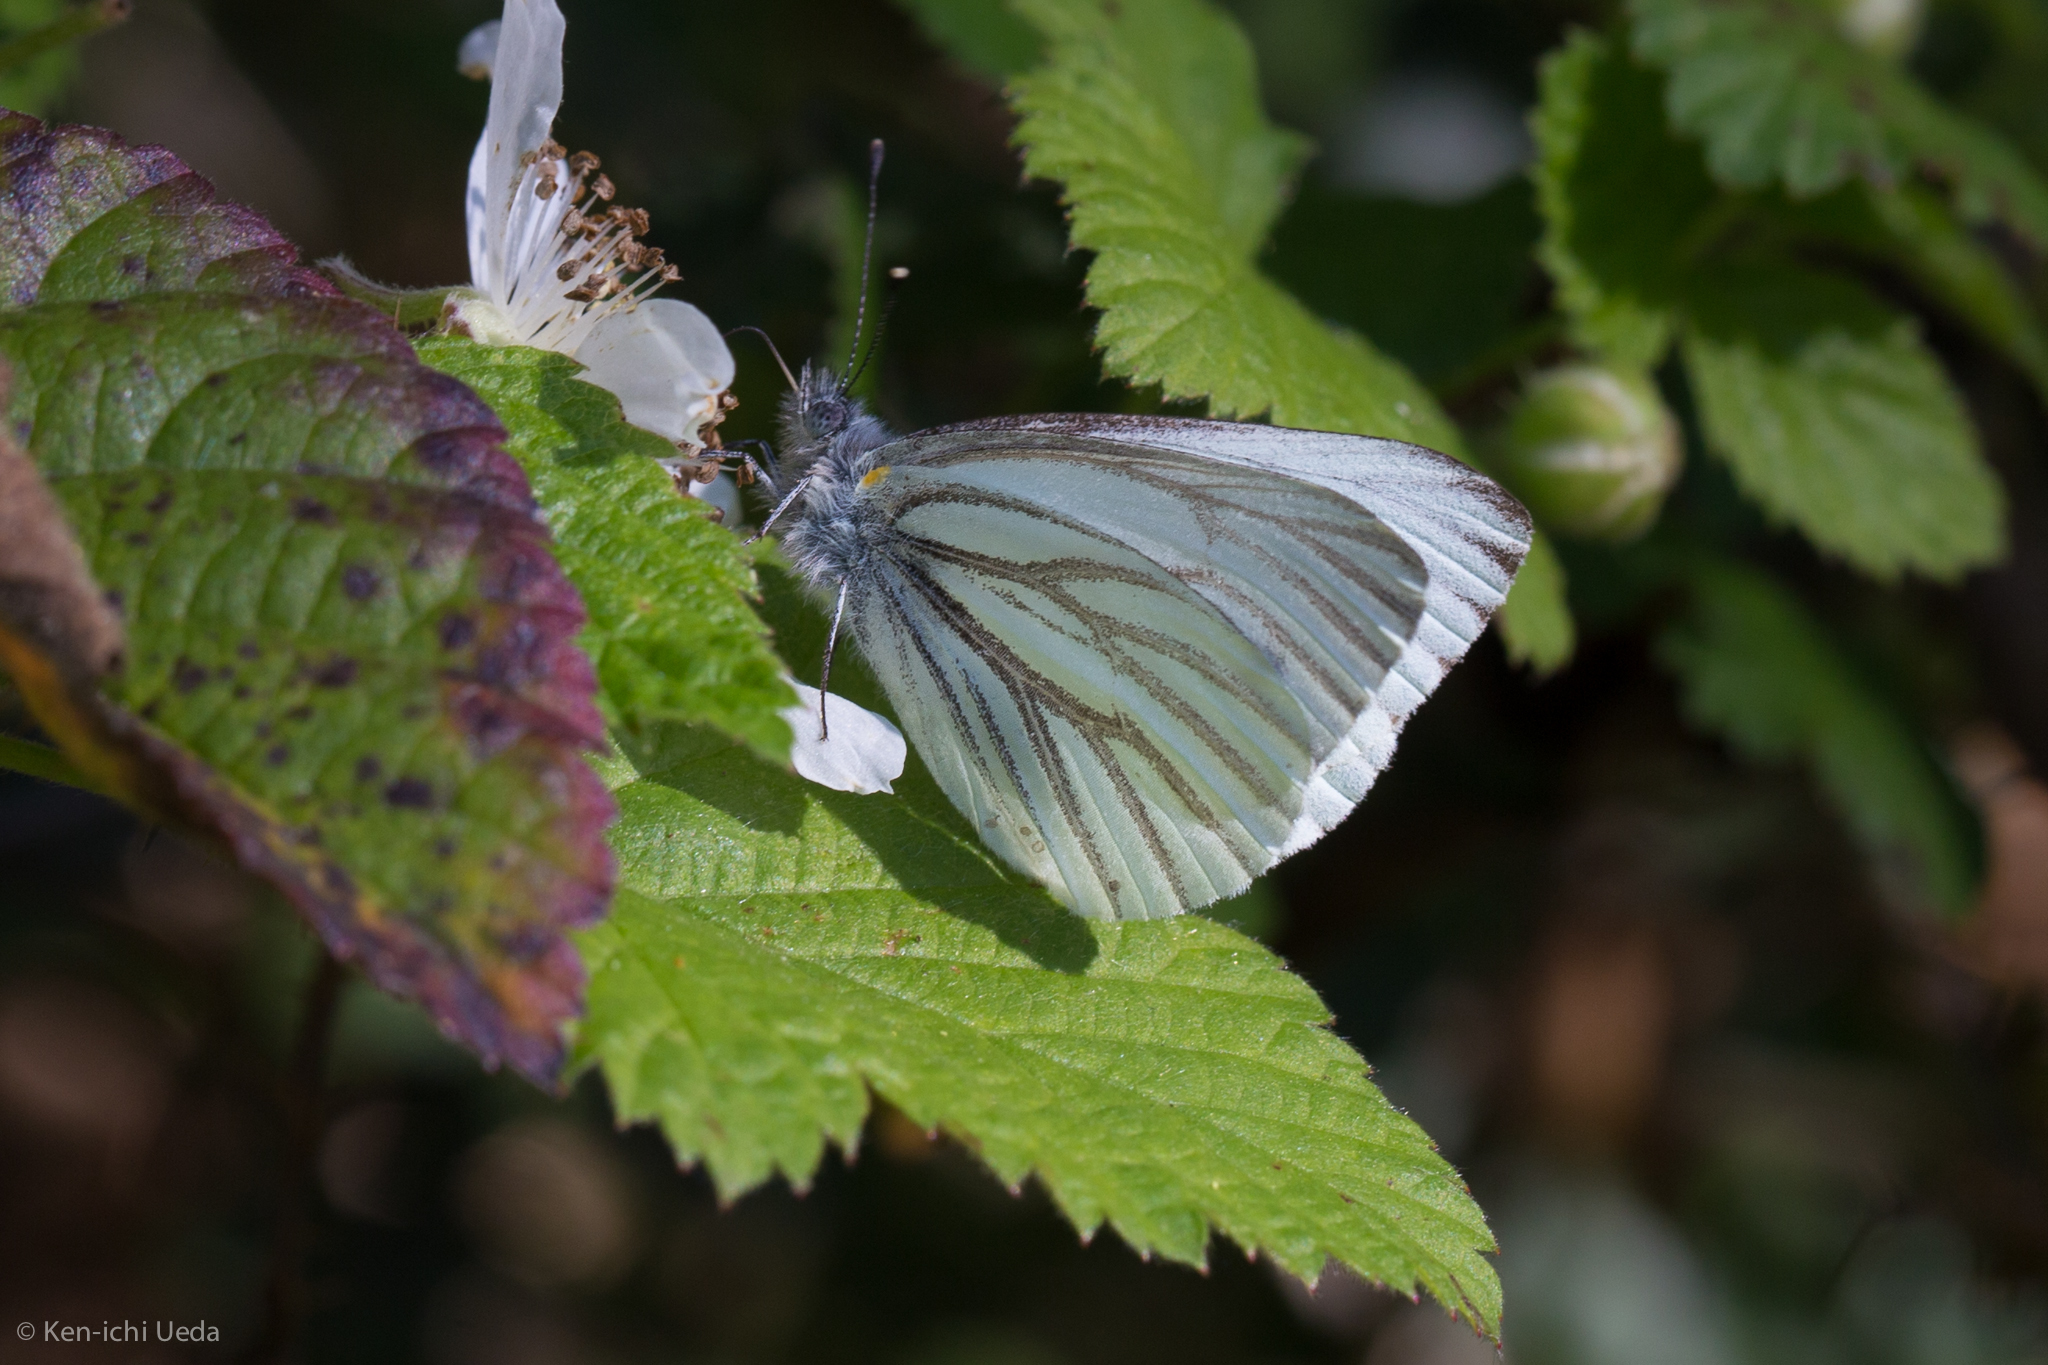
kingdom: Animalia
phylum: Arthropoda
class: Insecta
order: Lepidoptera
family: Pieridae
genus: Pieris
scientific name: Pieris marginalis
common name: Margined white
